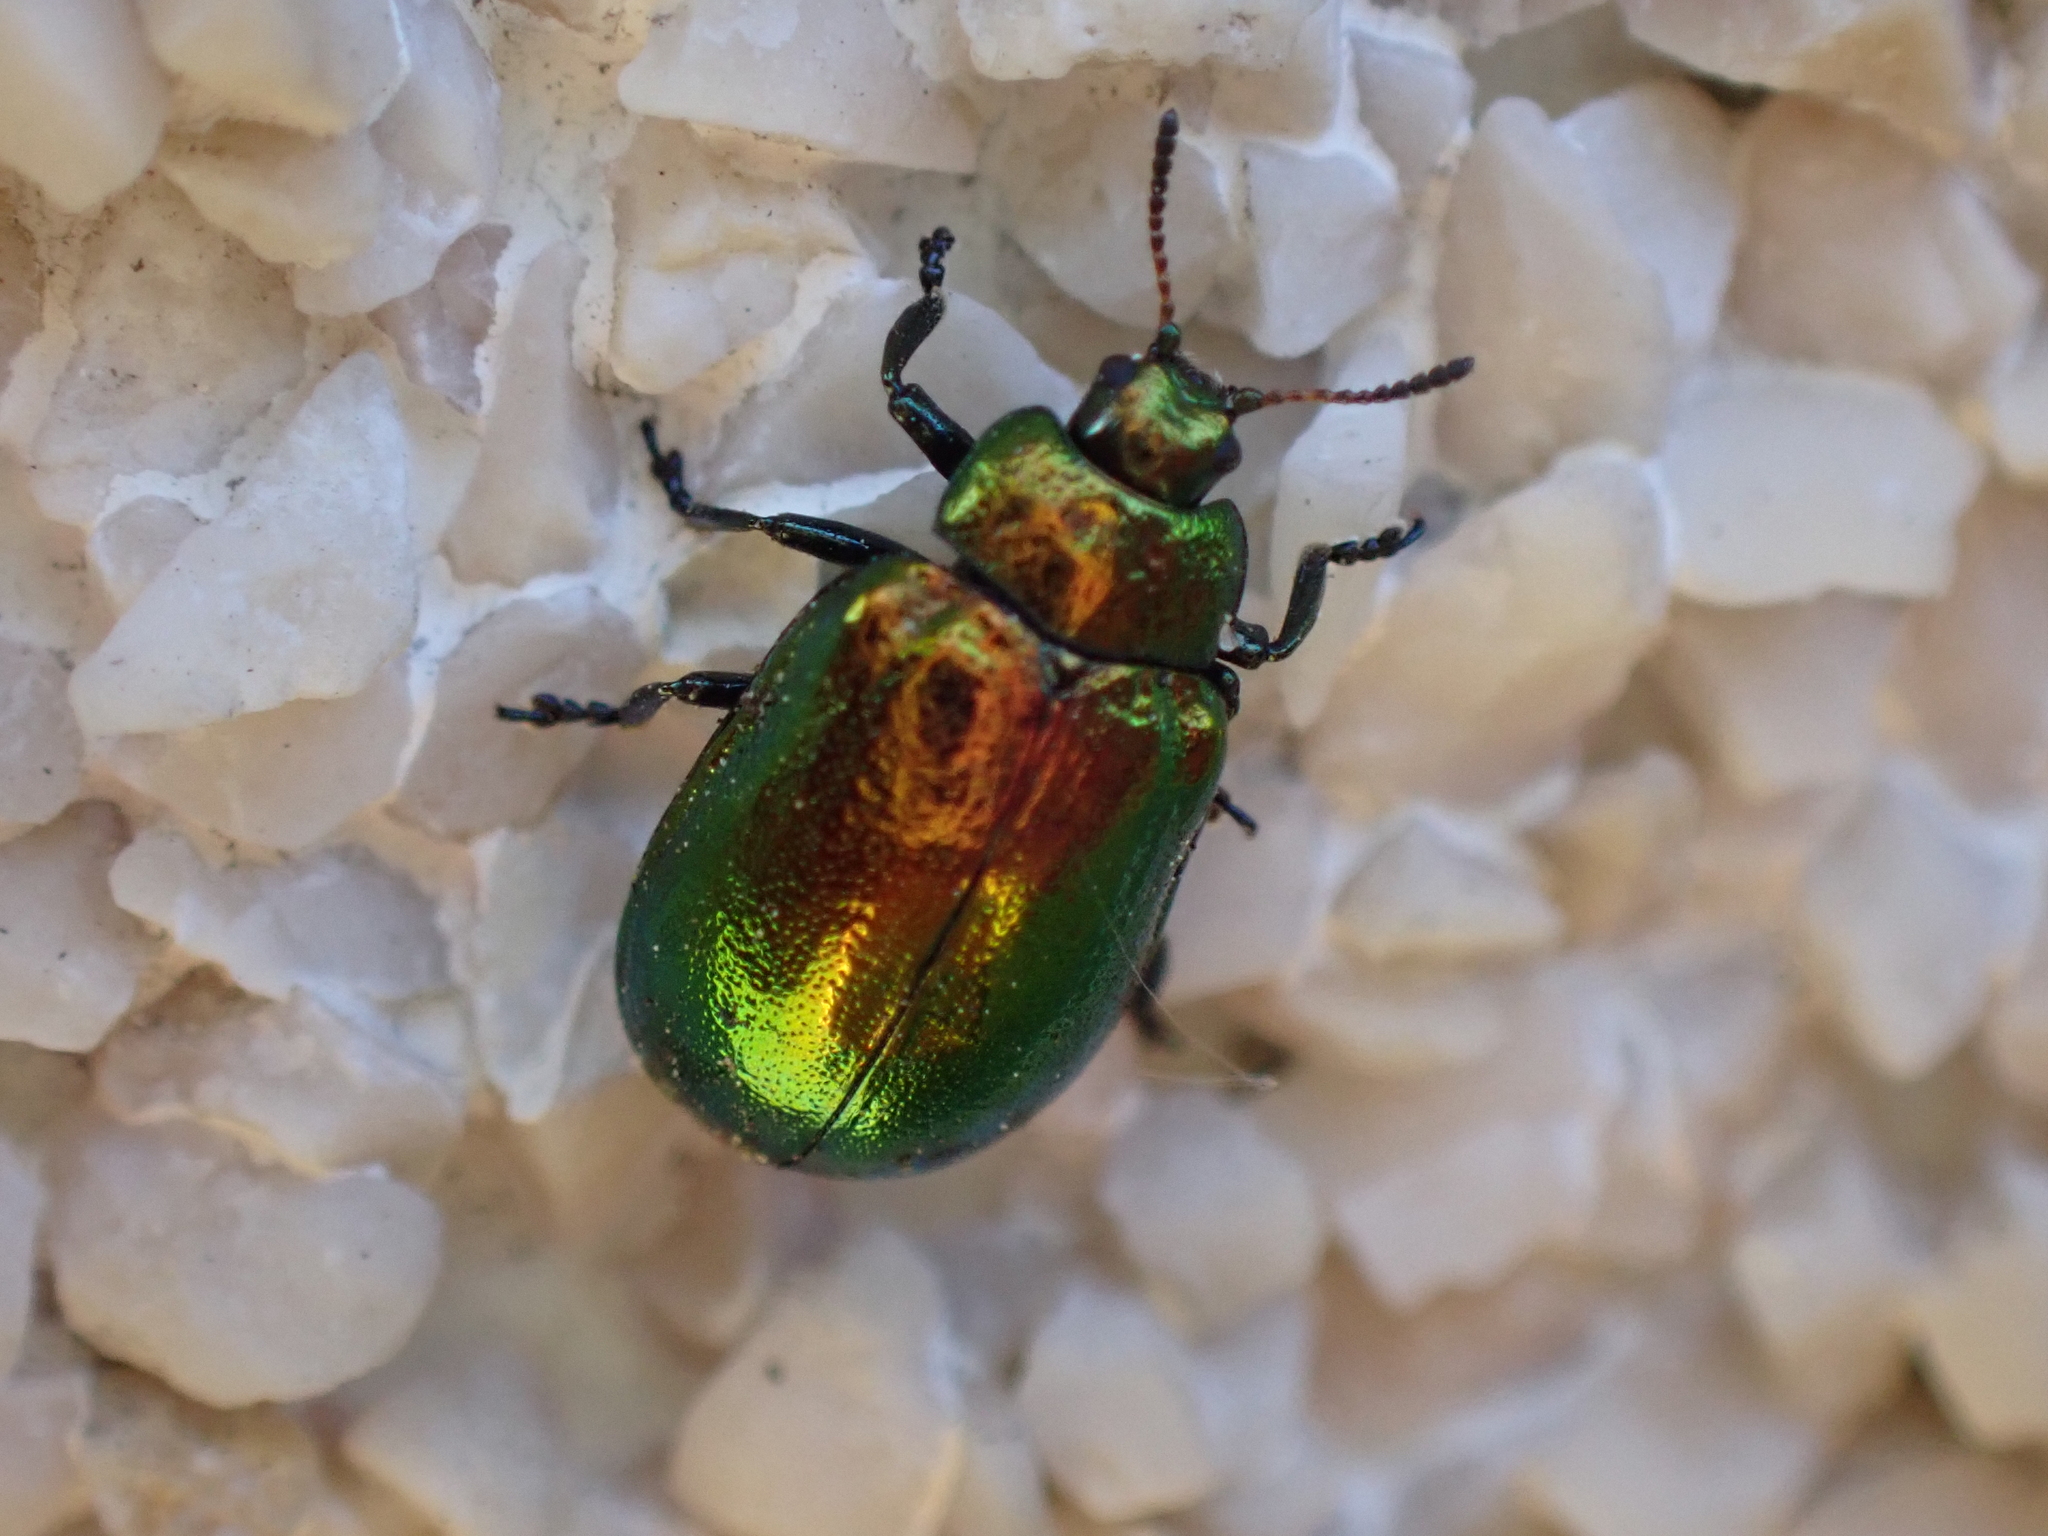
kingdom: Animalia
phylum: Arthropoda
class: Insecta
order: Coleoptera
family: Chrysomelidae
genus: Plagiosterna
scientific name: Plagiosterna aenea
